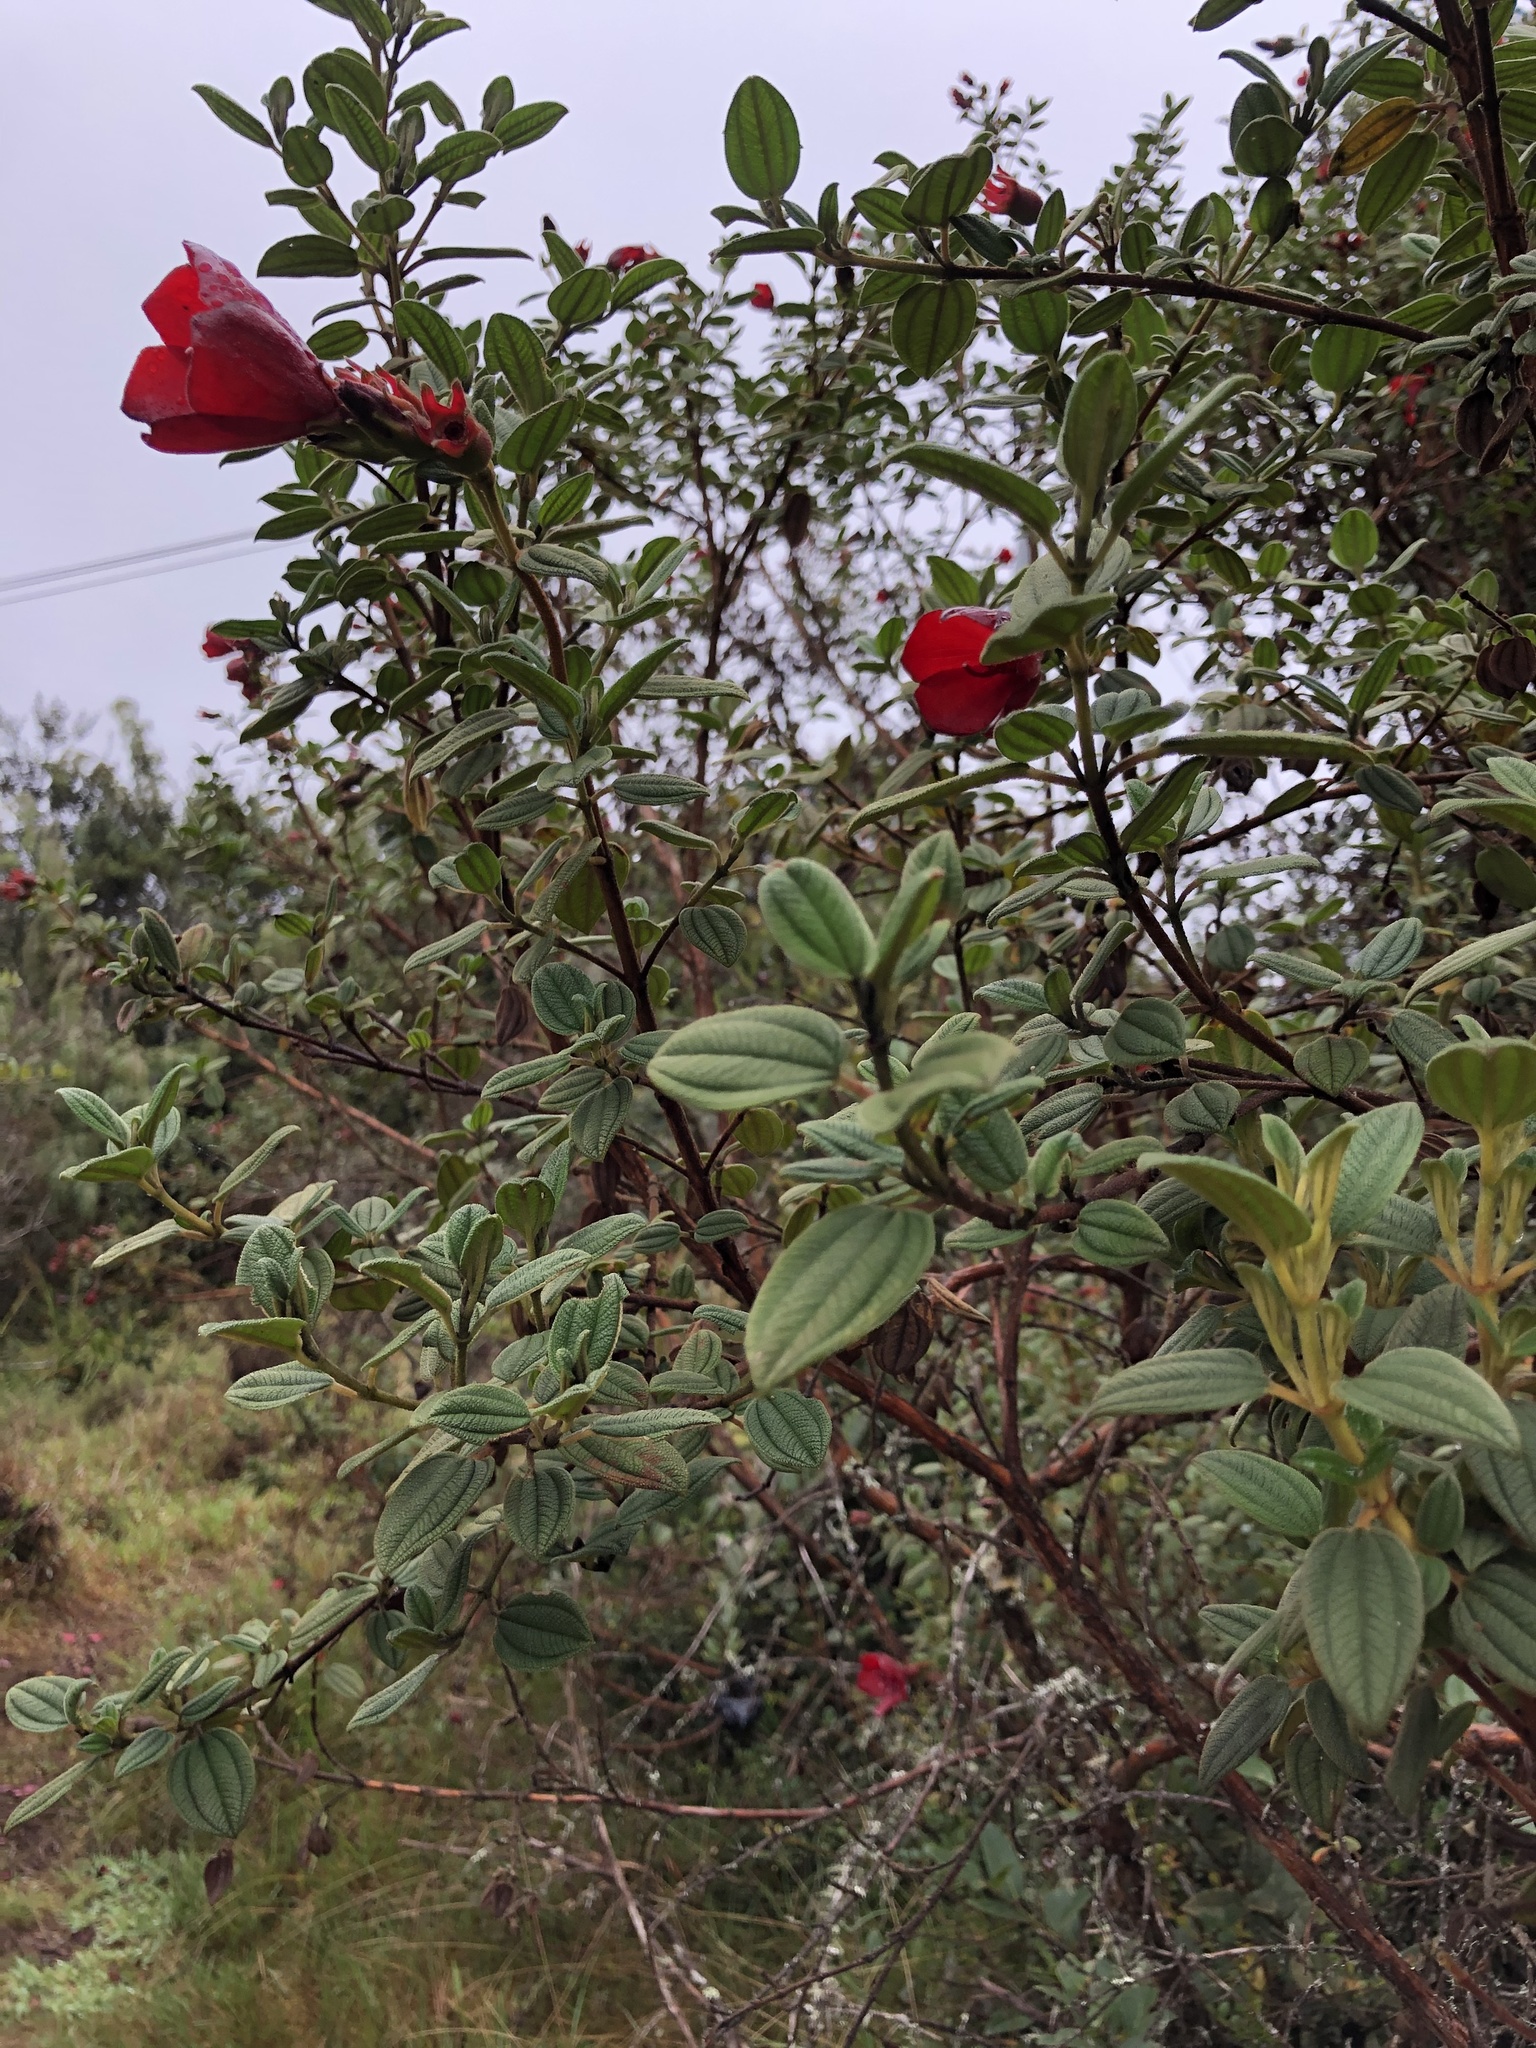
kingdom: Plantae
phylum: Tracheophyta
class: Magnoliopsida
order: Myrtales
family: Melastomataceae
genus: Chaetogastra
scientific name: Chaetogastra grossa
